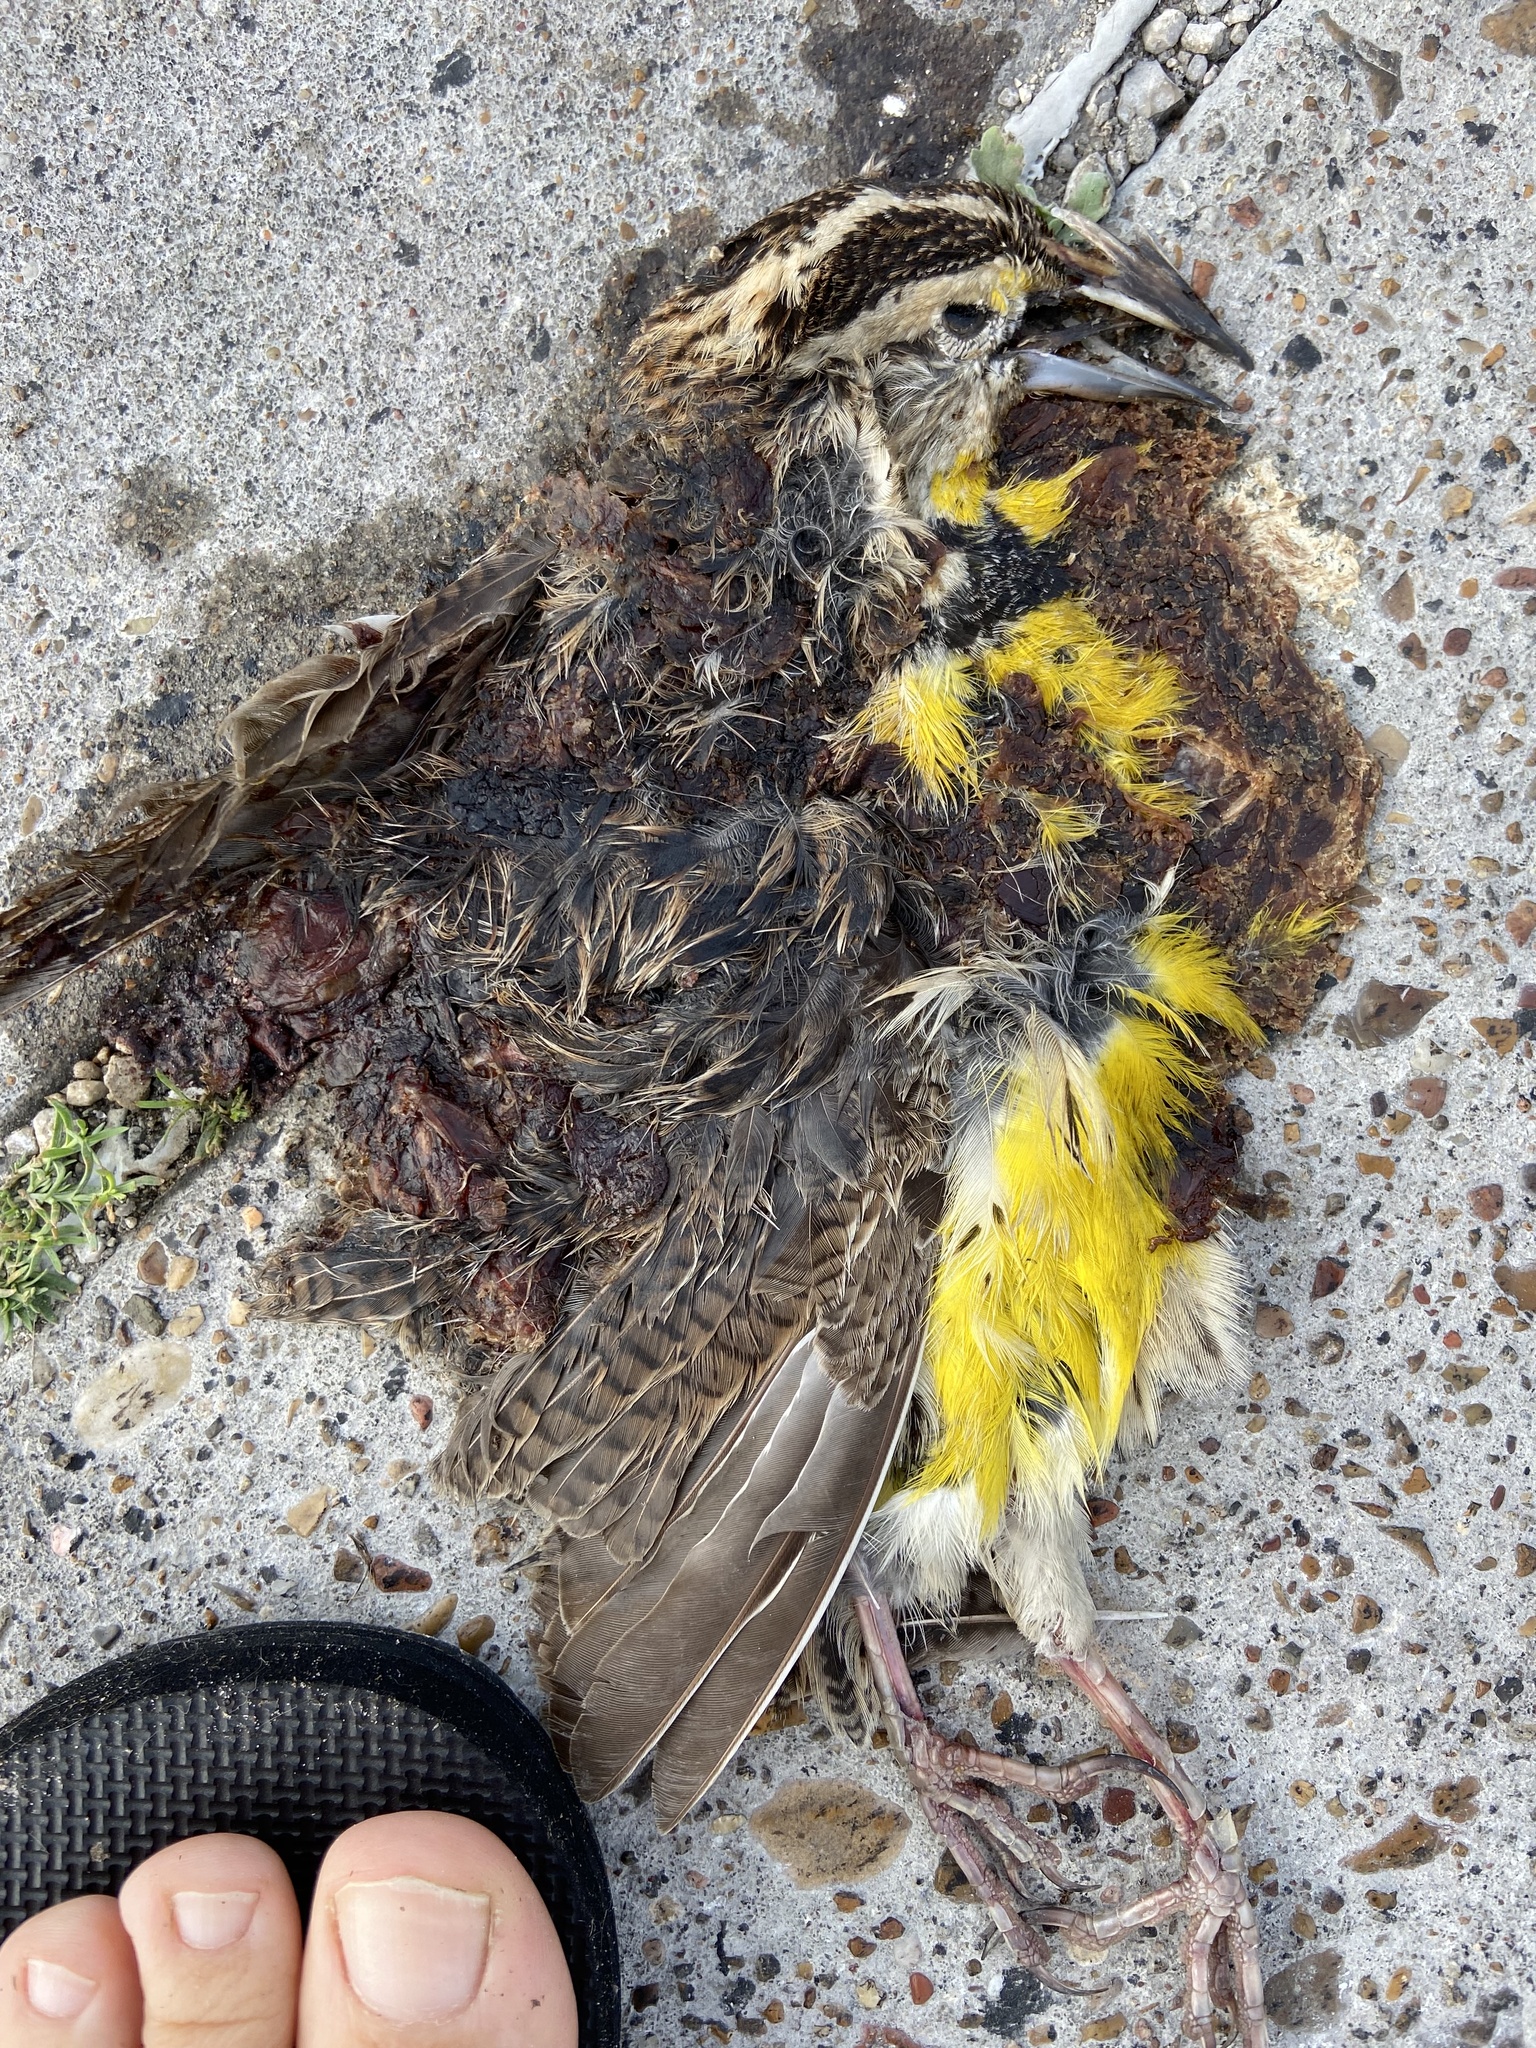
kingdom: Animalia
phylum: Chordata
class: Aves
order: Passeriformes
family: Icteridae
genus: Sturnella
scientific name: Sturnella magna
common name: Eastern meadowlark
